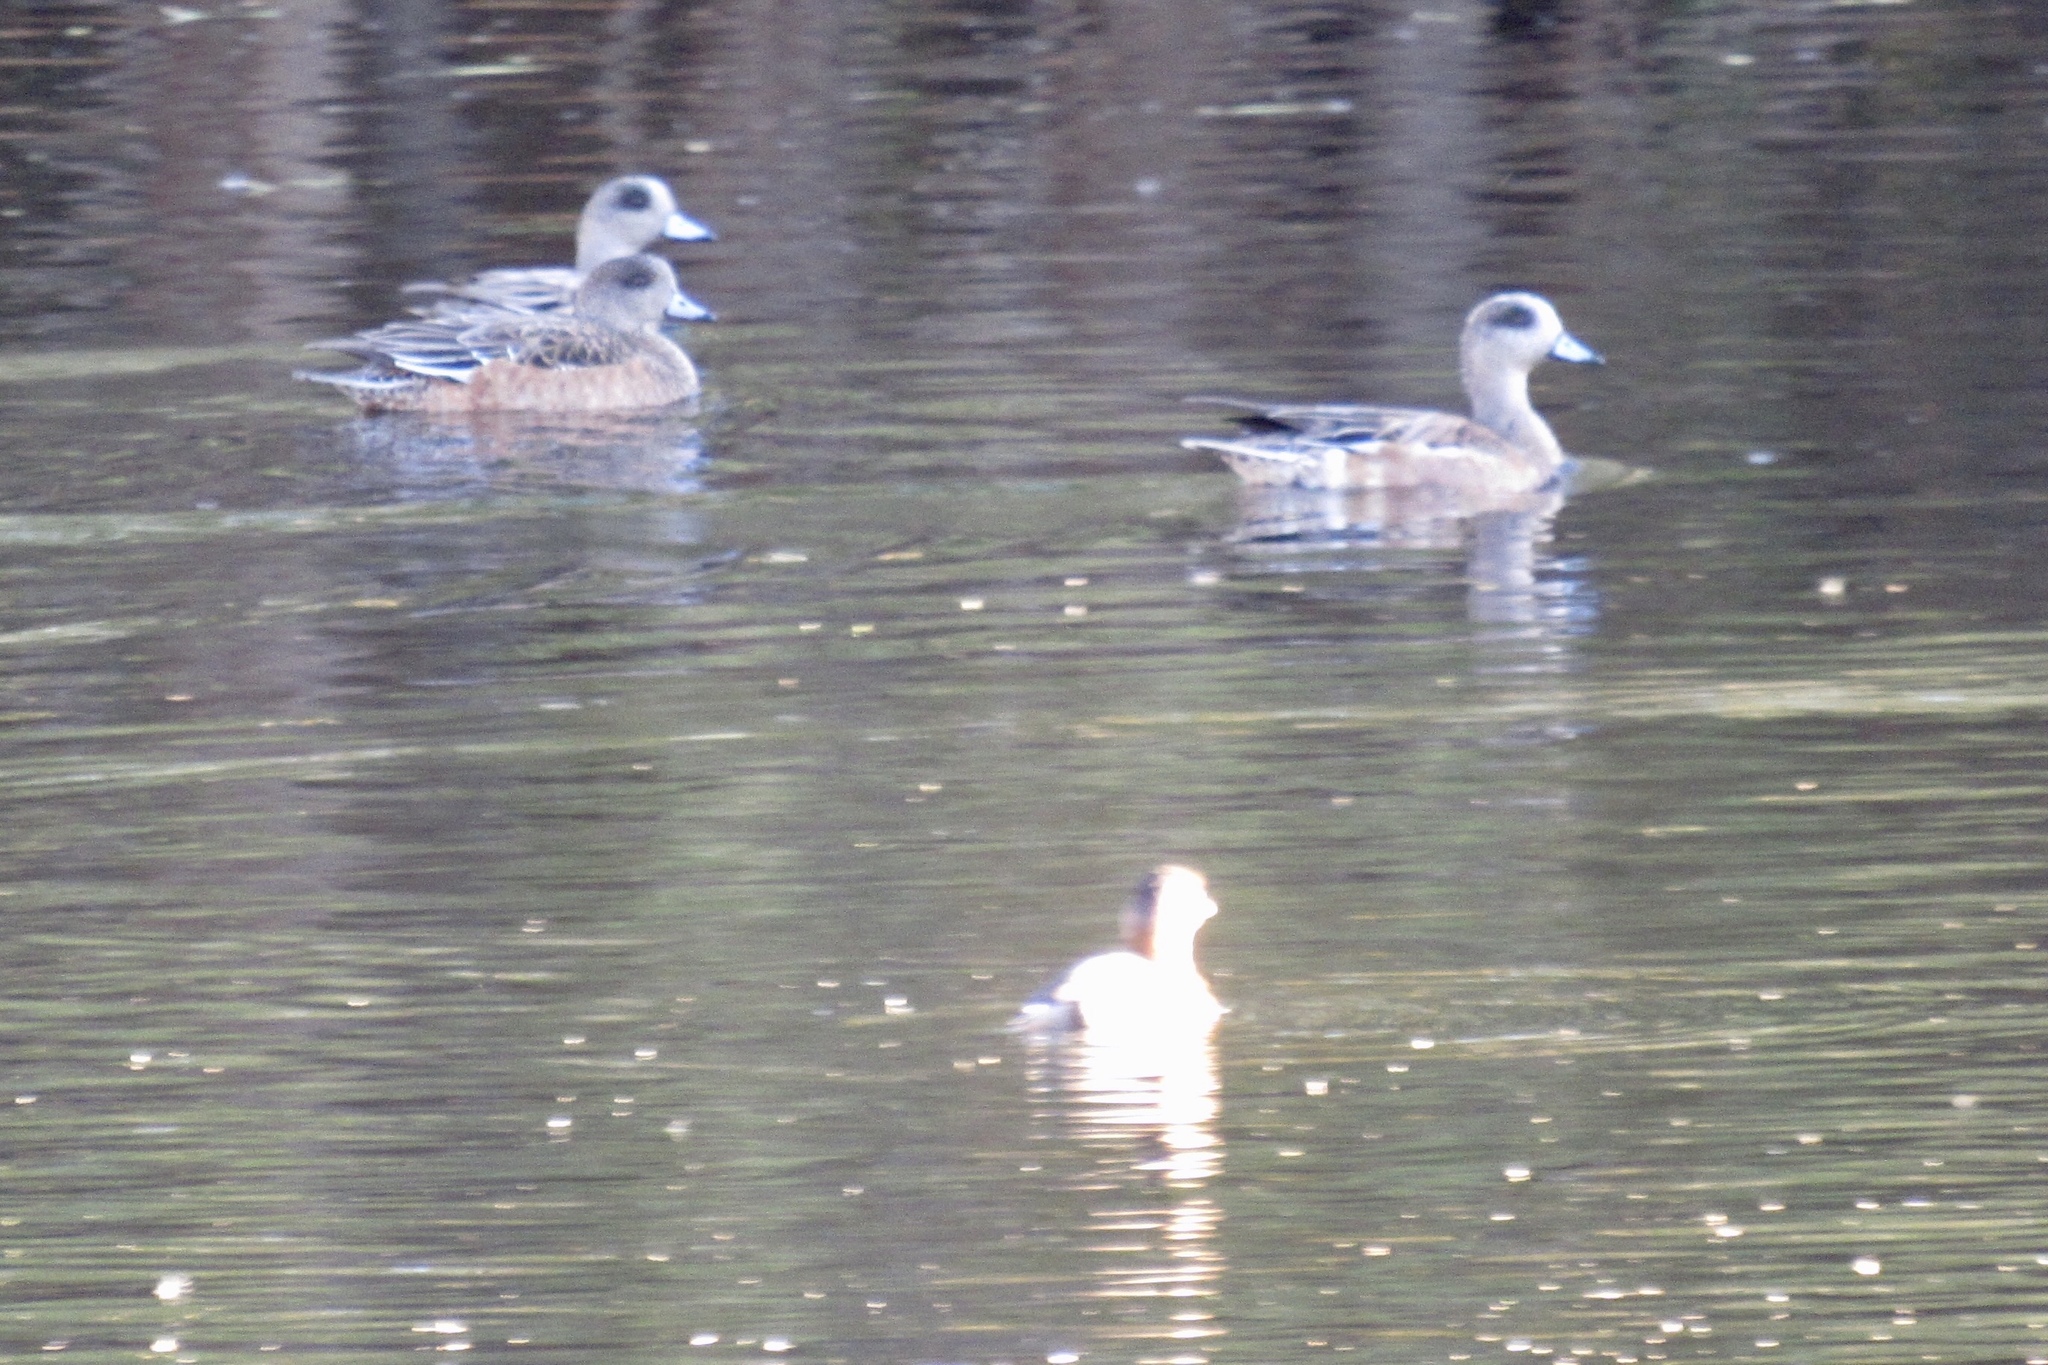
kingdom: Animalia
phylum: Chordata
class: Aves
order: Anseriformes
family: Anatidae
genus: Mareca
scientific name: Mareca americana
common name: American wigeon
